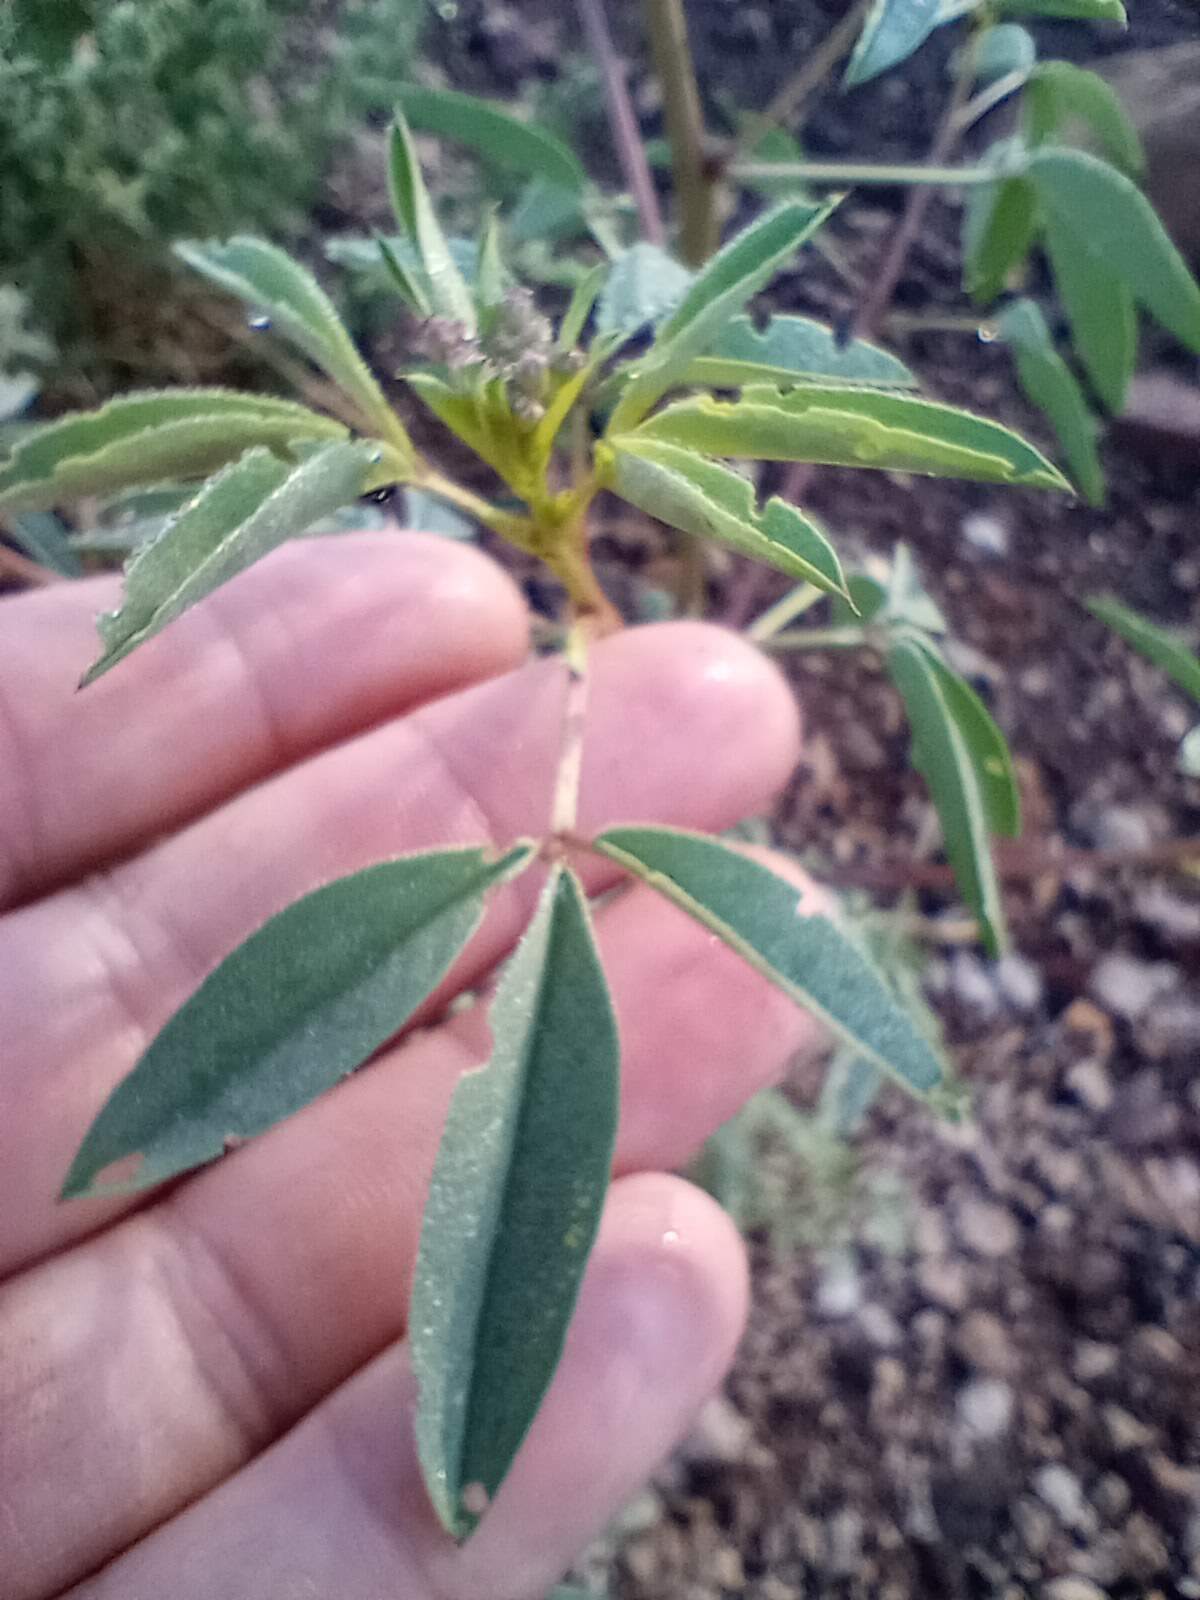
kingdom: Plantae
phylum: Tracheophyta
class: Magnoliopsida
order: Brassicales
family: Cleomaceae
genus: Cleomella
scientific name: Cleomella serrulata
